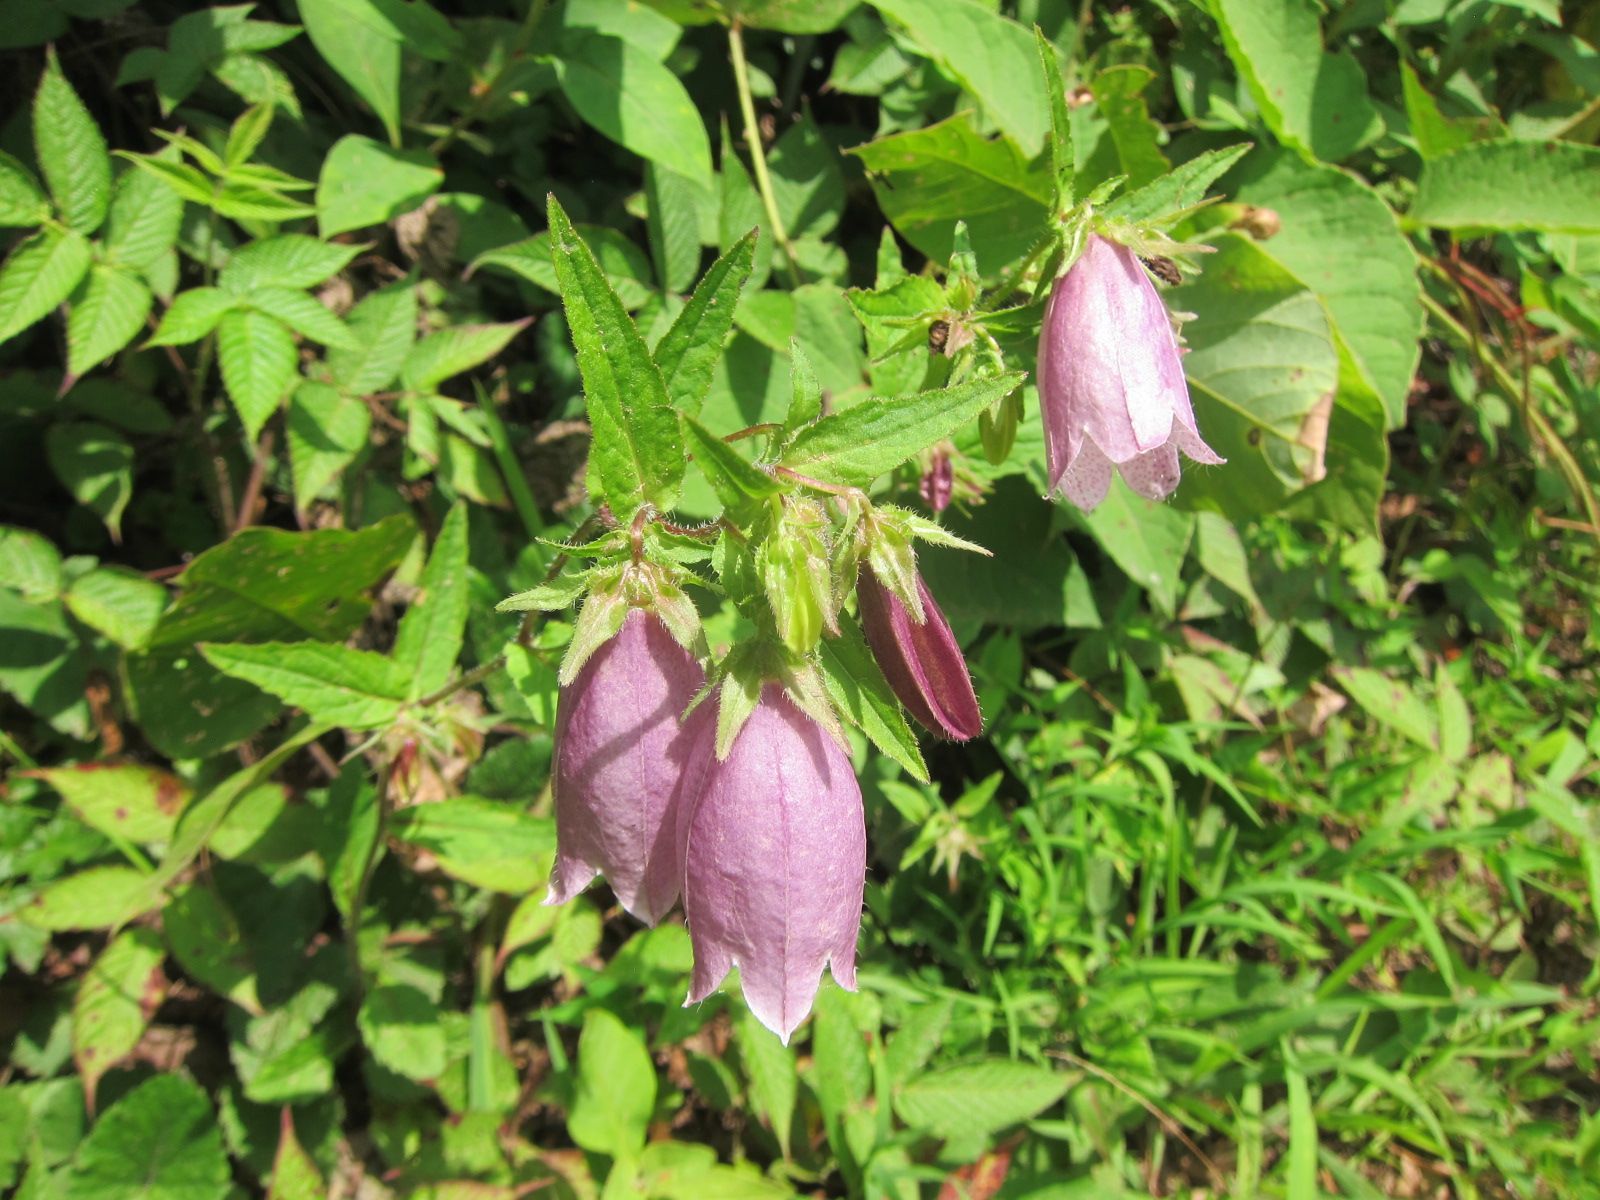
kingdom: Plantae
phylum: Tracheophyta
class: Magnoliopsida
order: Asterales
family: Campanulaceae
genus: Campanula
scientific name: Campanula punctata
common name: Spotted bellflower
